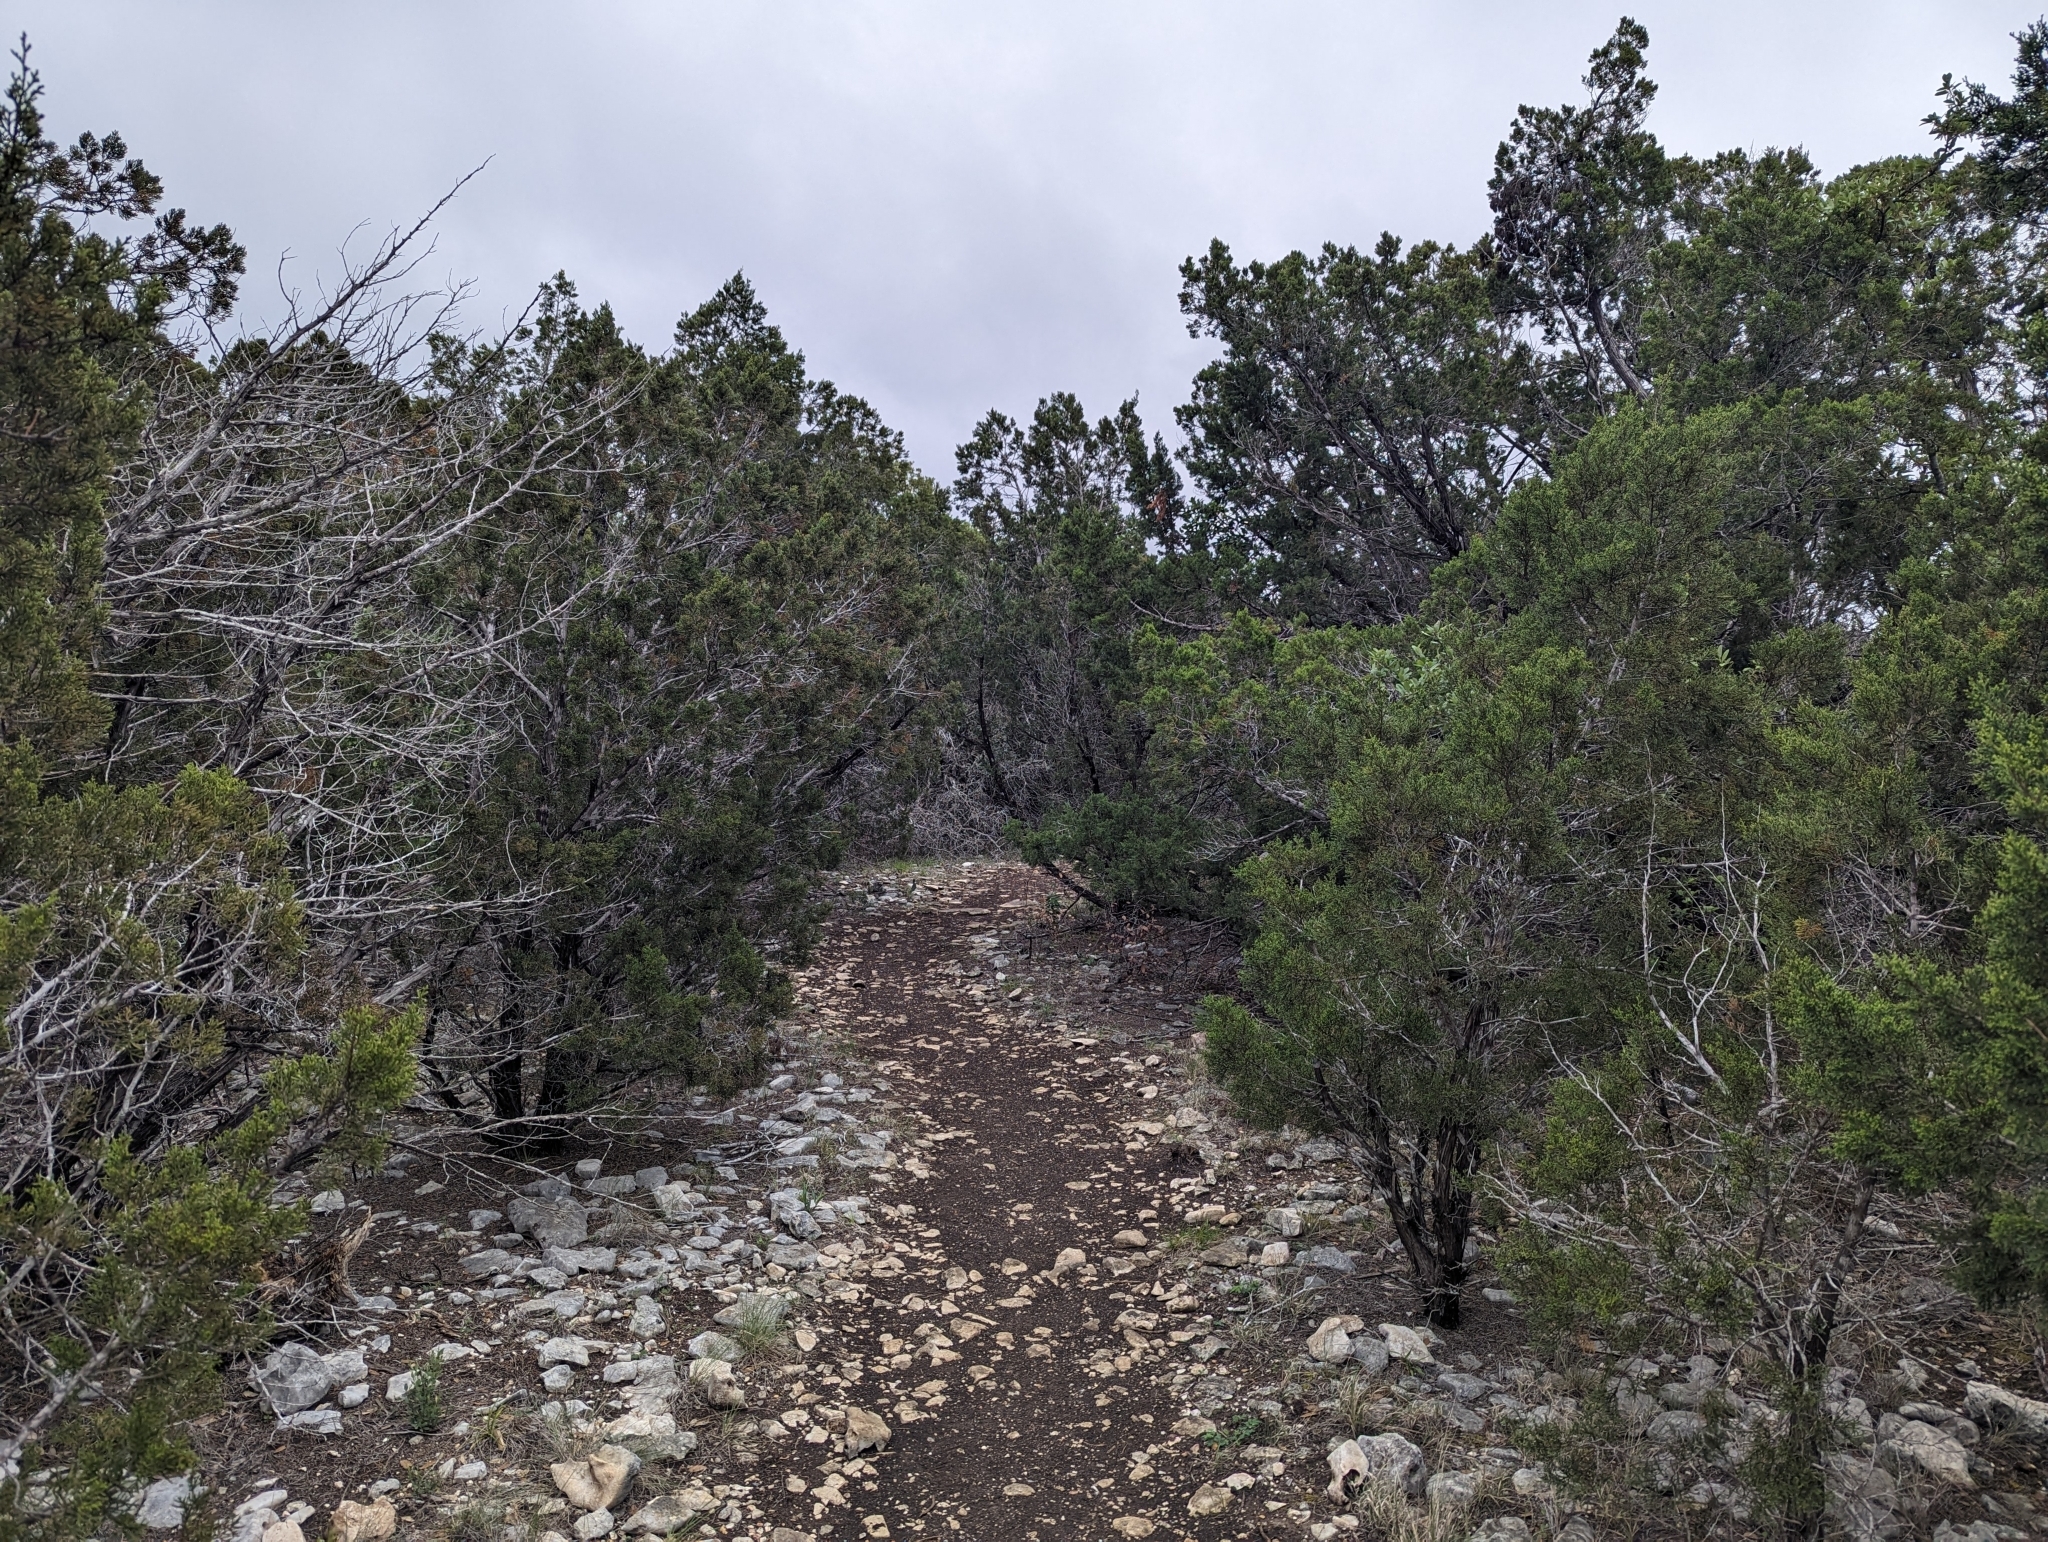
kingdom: Plantae
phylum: Tracheophyta
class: Pinopsida
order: Pinales
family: Cupressaceae
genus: Juniperus
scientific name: Juniperus ashei
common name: Mexican juniper
